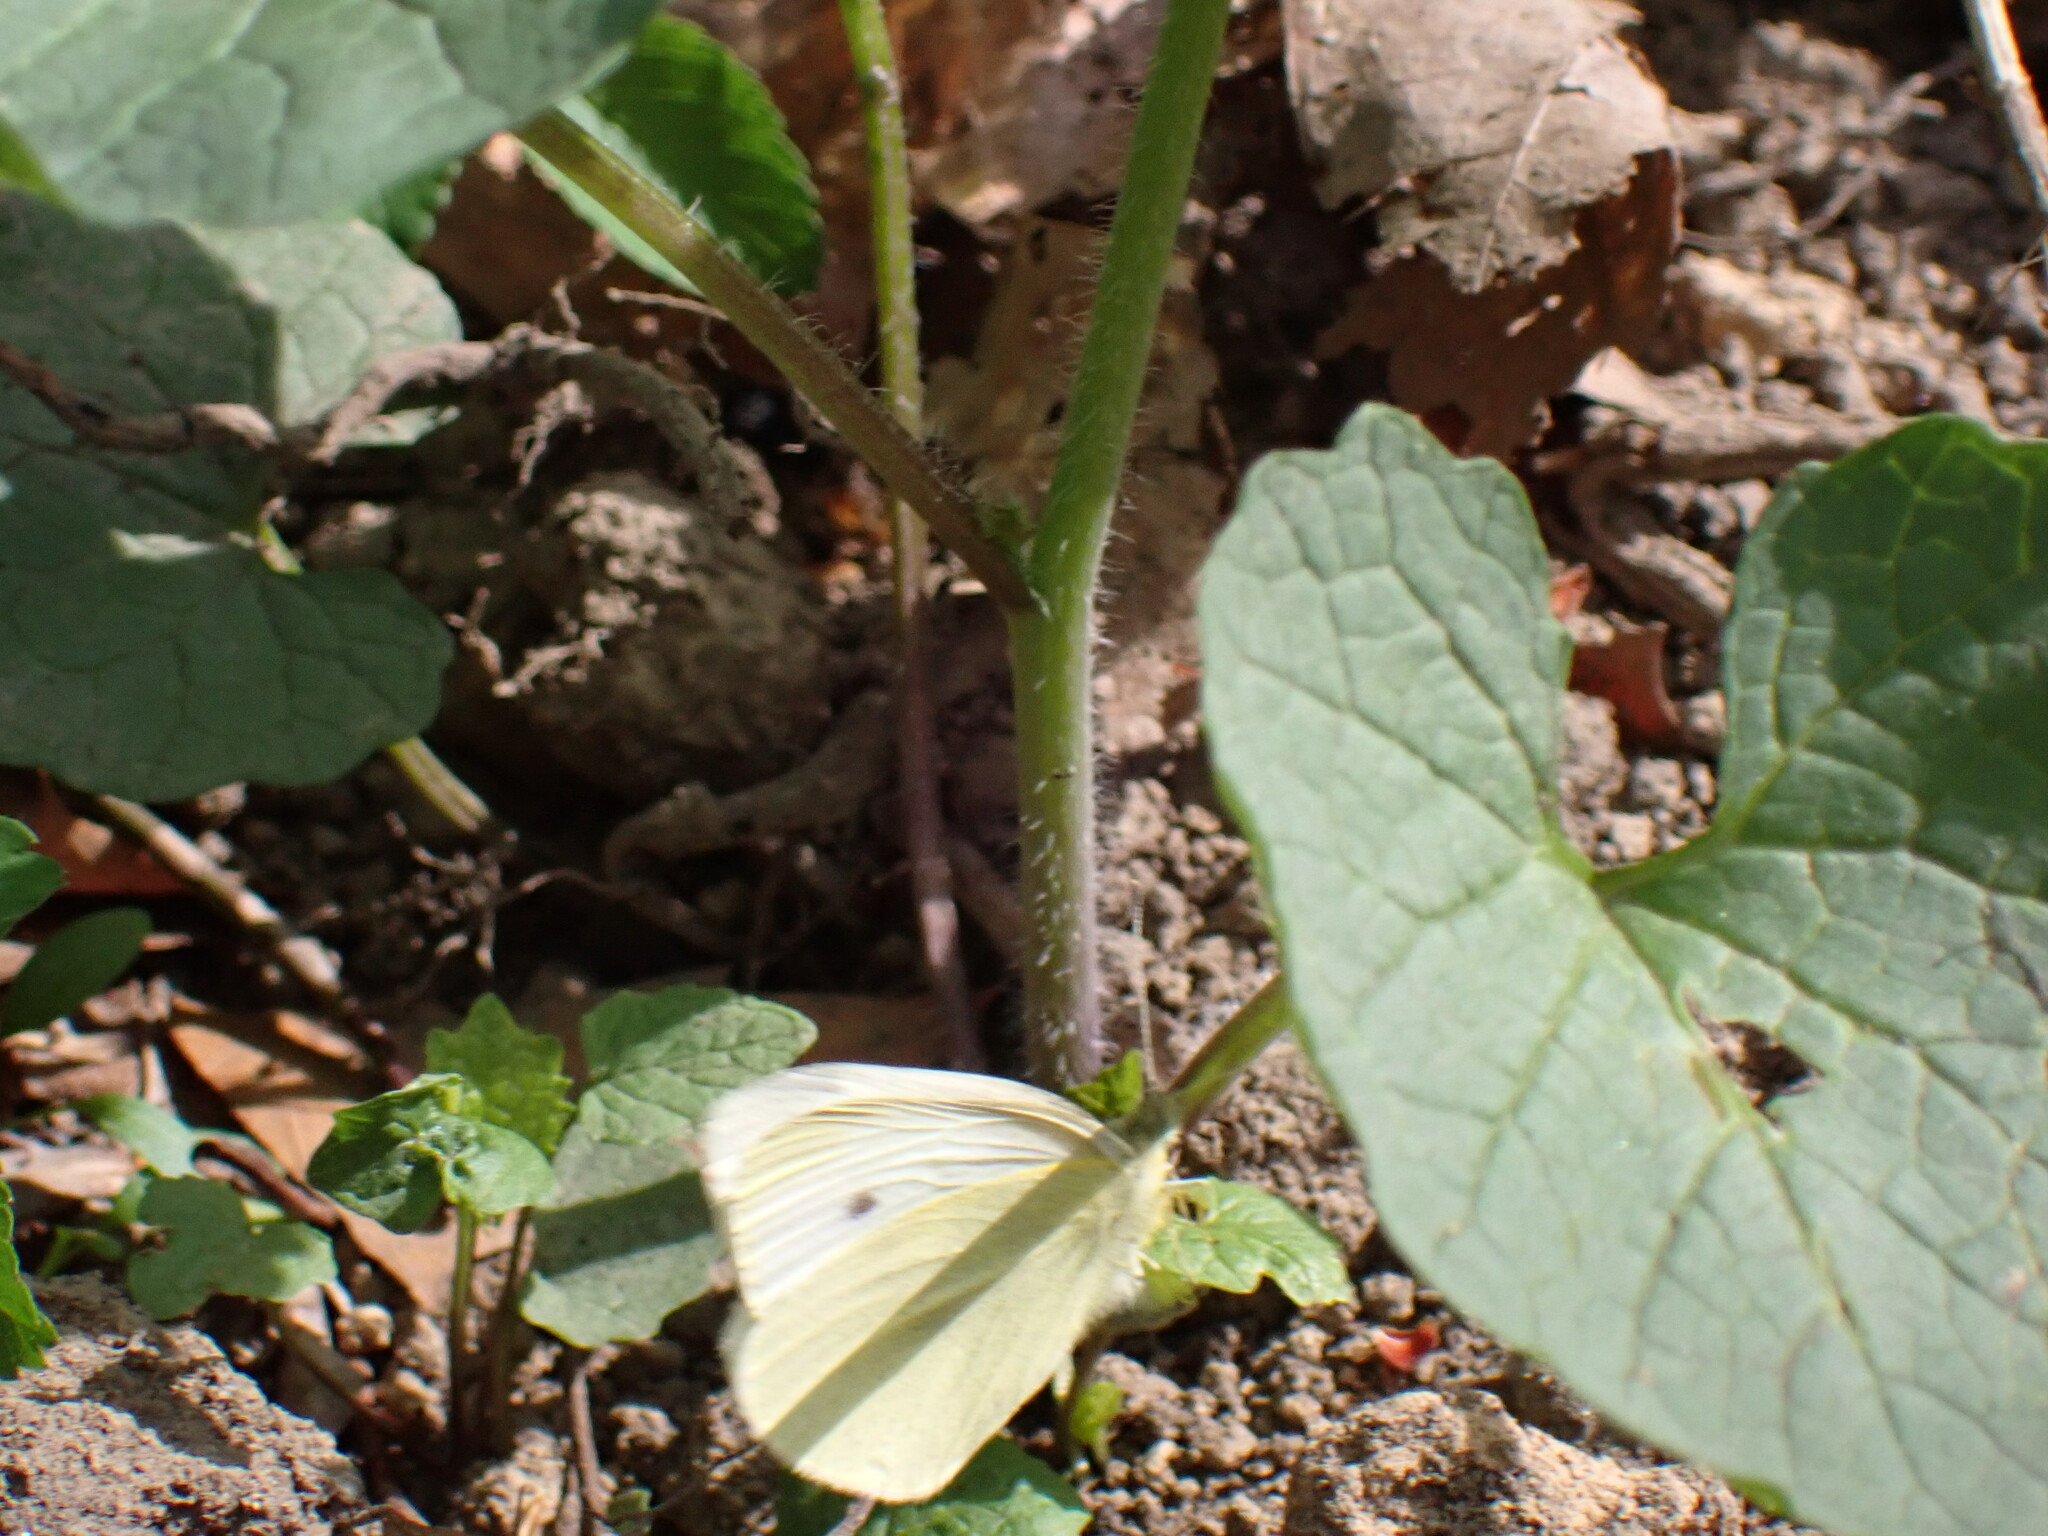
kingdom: Animalia
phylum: Arthropoda
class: Insecta
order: Lepidoptera
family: Pieridae
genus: Pieris
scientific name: Pieris rapae
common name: Small white
